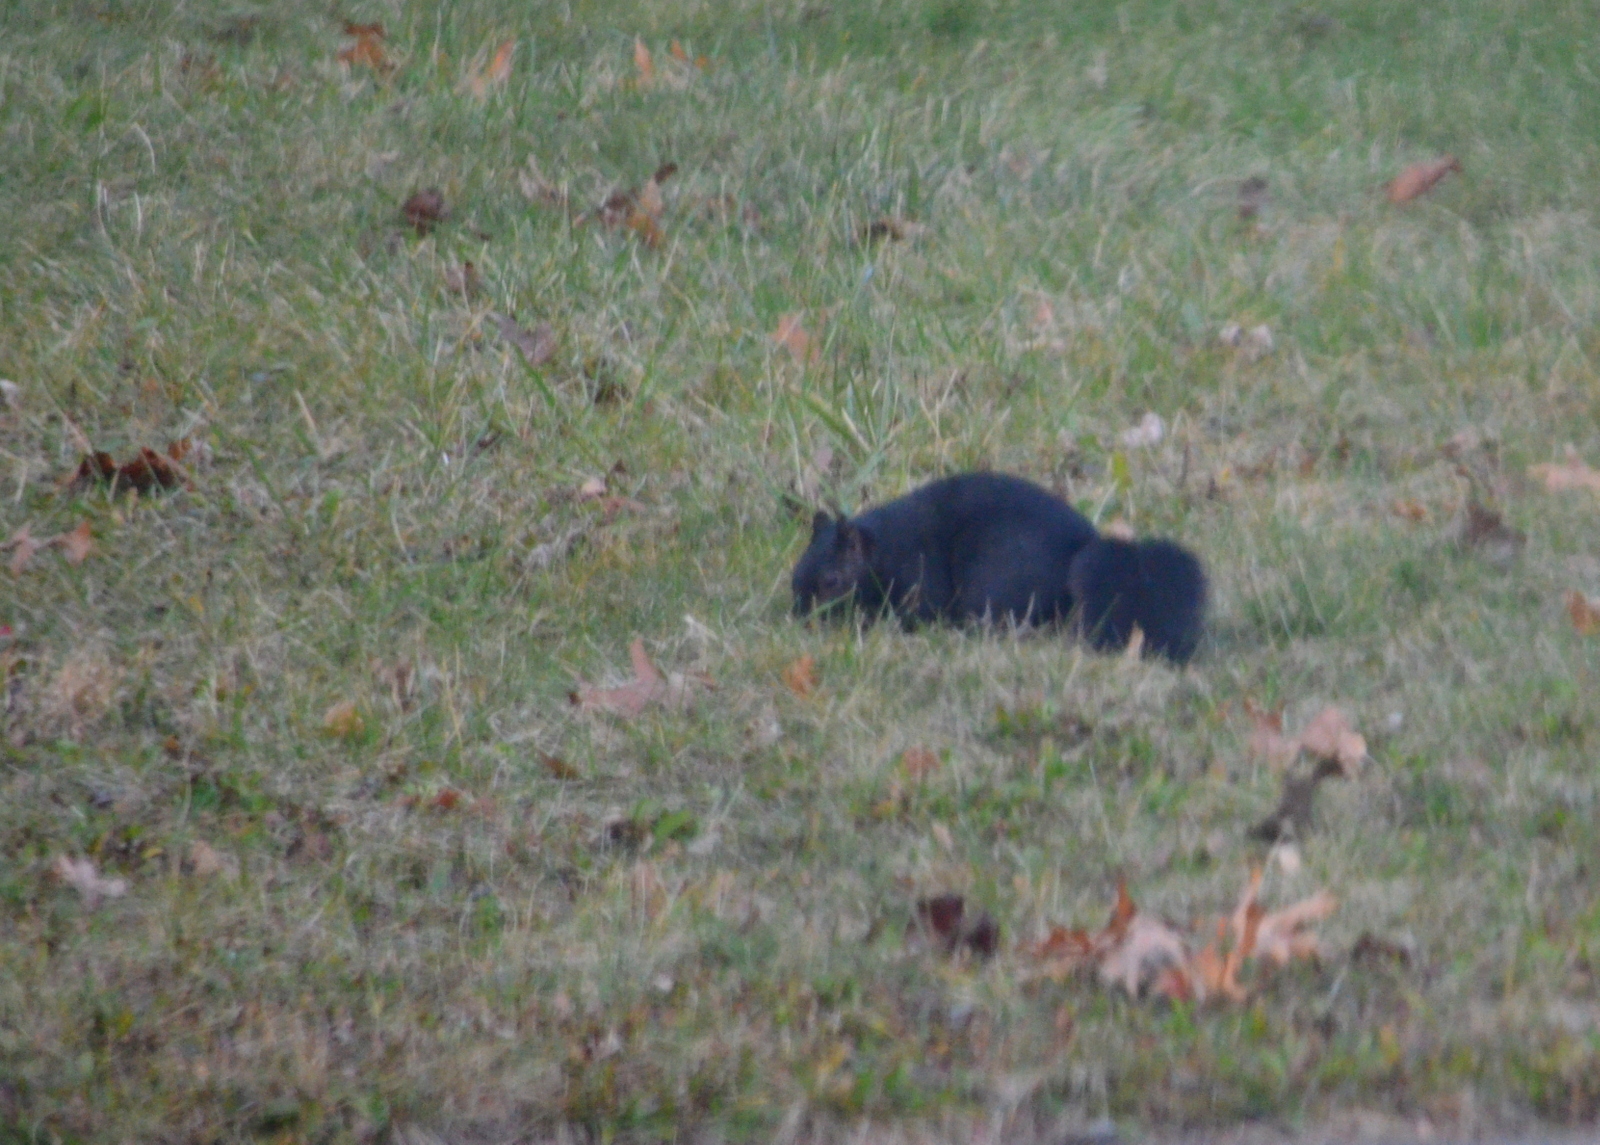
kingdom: Animalia
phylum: Chordata
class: Mammalia
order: Rodentia
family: Sciuridae
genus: Sciurus
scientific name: Sciurus carolinensis
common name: Eastern gray squirrel
